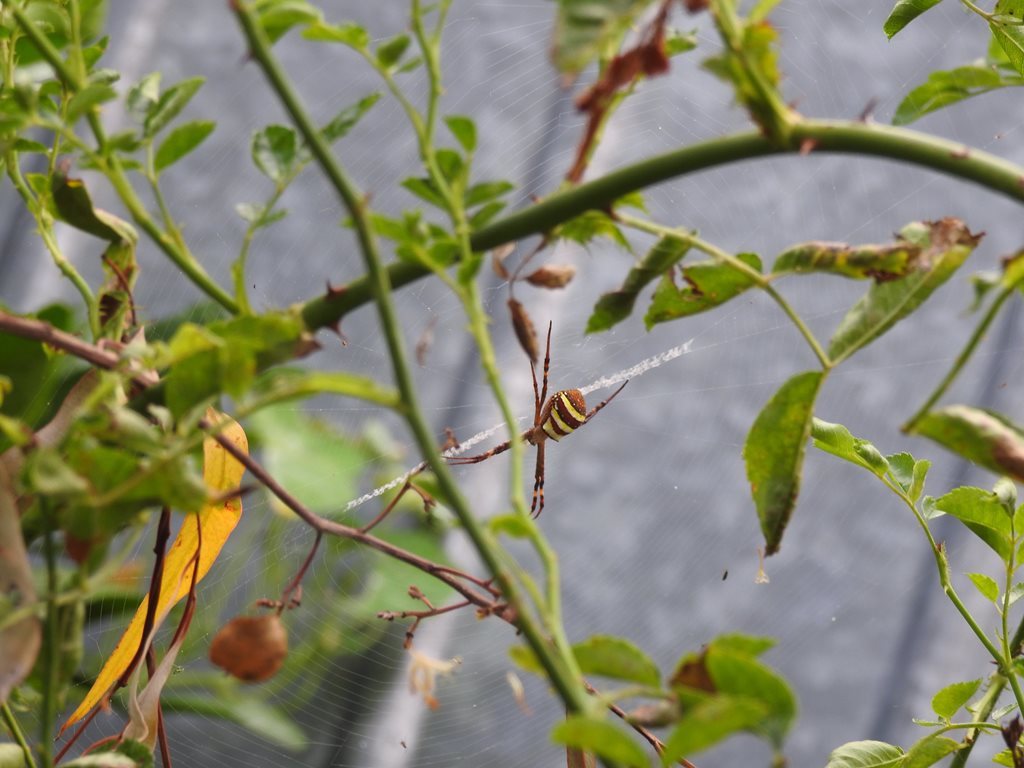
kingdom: Animalia
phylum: Arthropoda
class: Arachnida
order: Araneae
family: Araneidae
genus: Argiope
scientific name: Argiope keyserlingi
